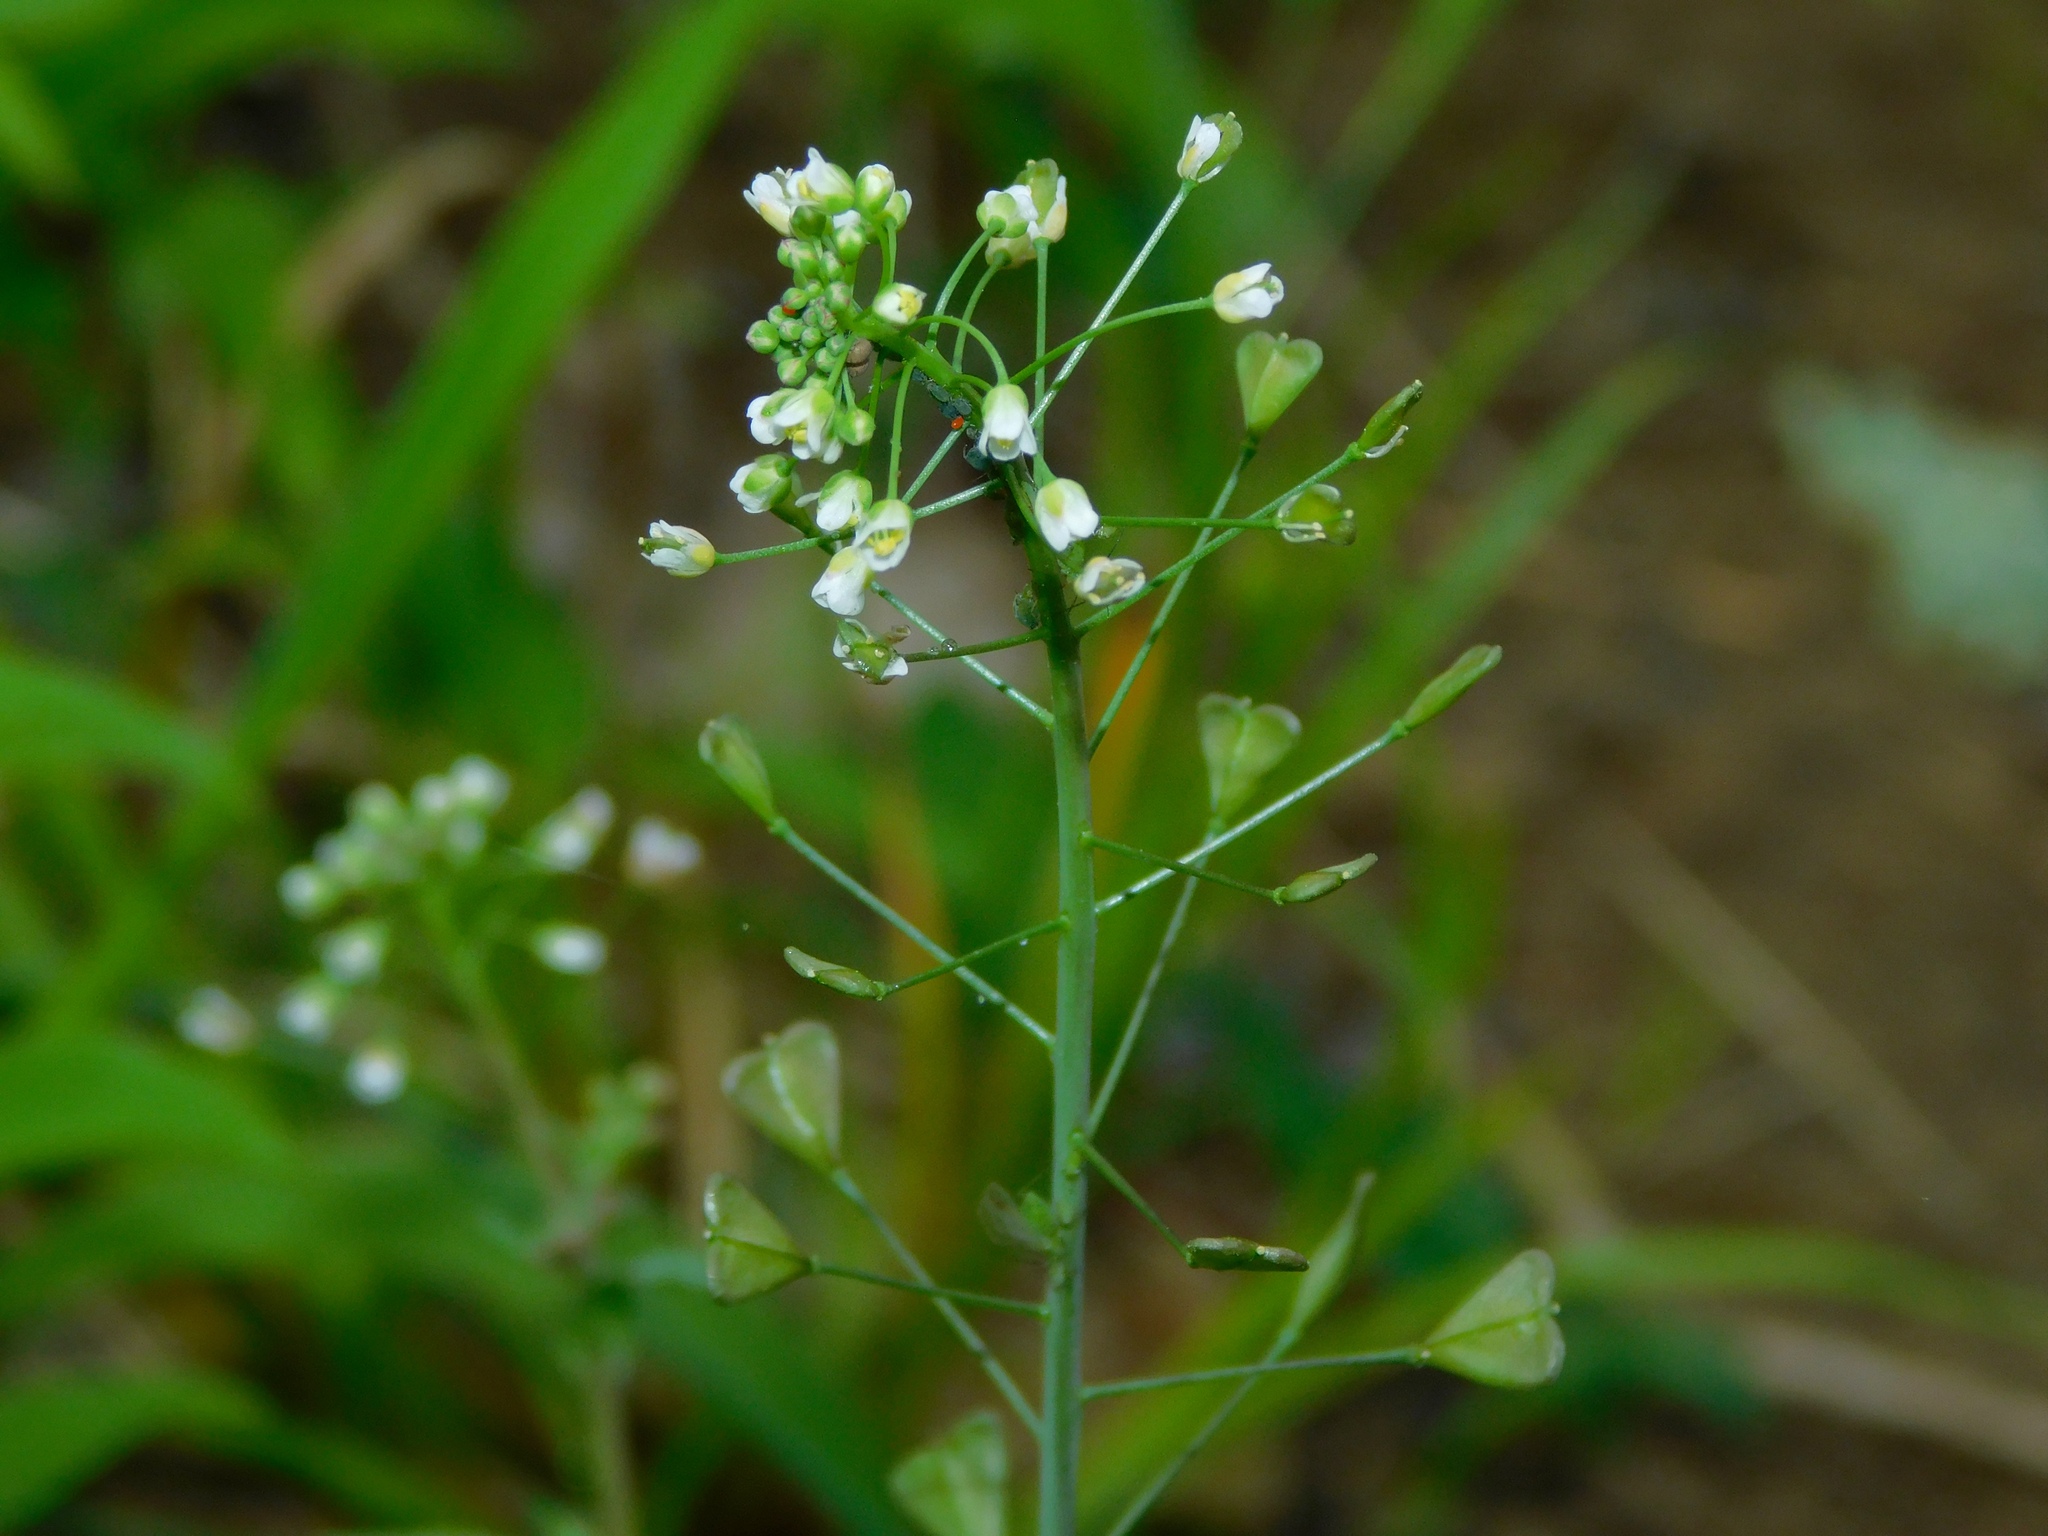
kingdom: Plantae
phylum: Tracheophyta
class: Magnoliopsida
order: Brassicales
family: Brassicaceae
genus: Capsella
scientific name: Capsella bursa-pastoris
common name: Shepherd's purse
